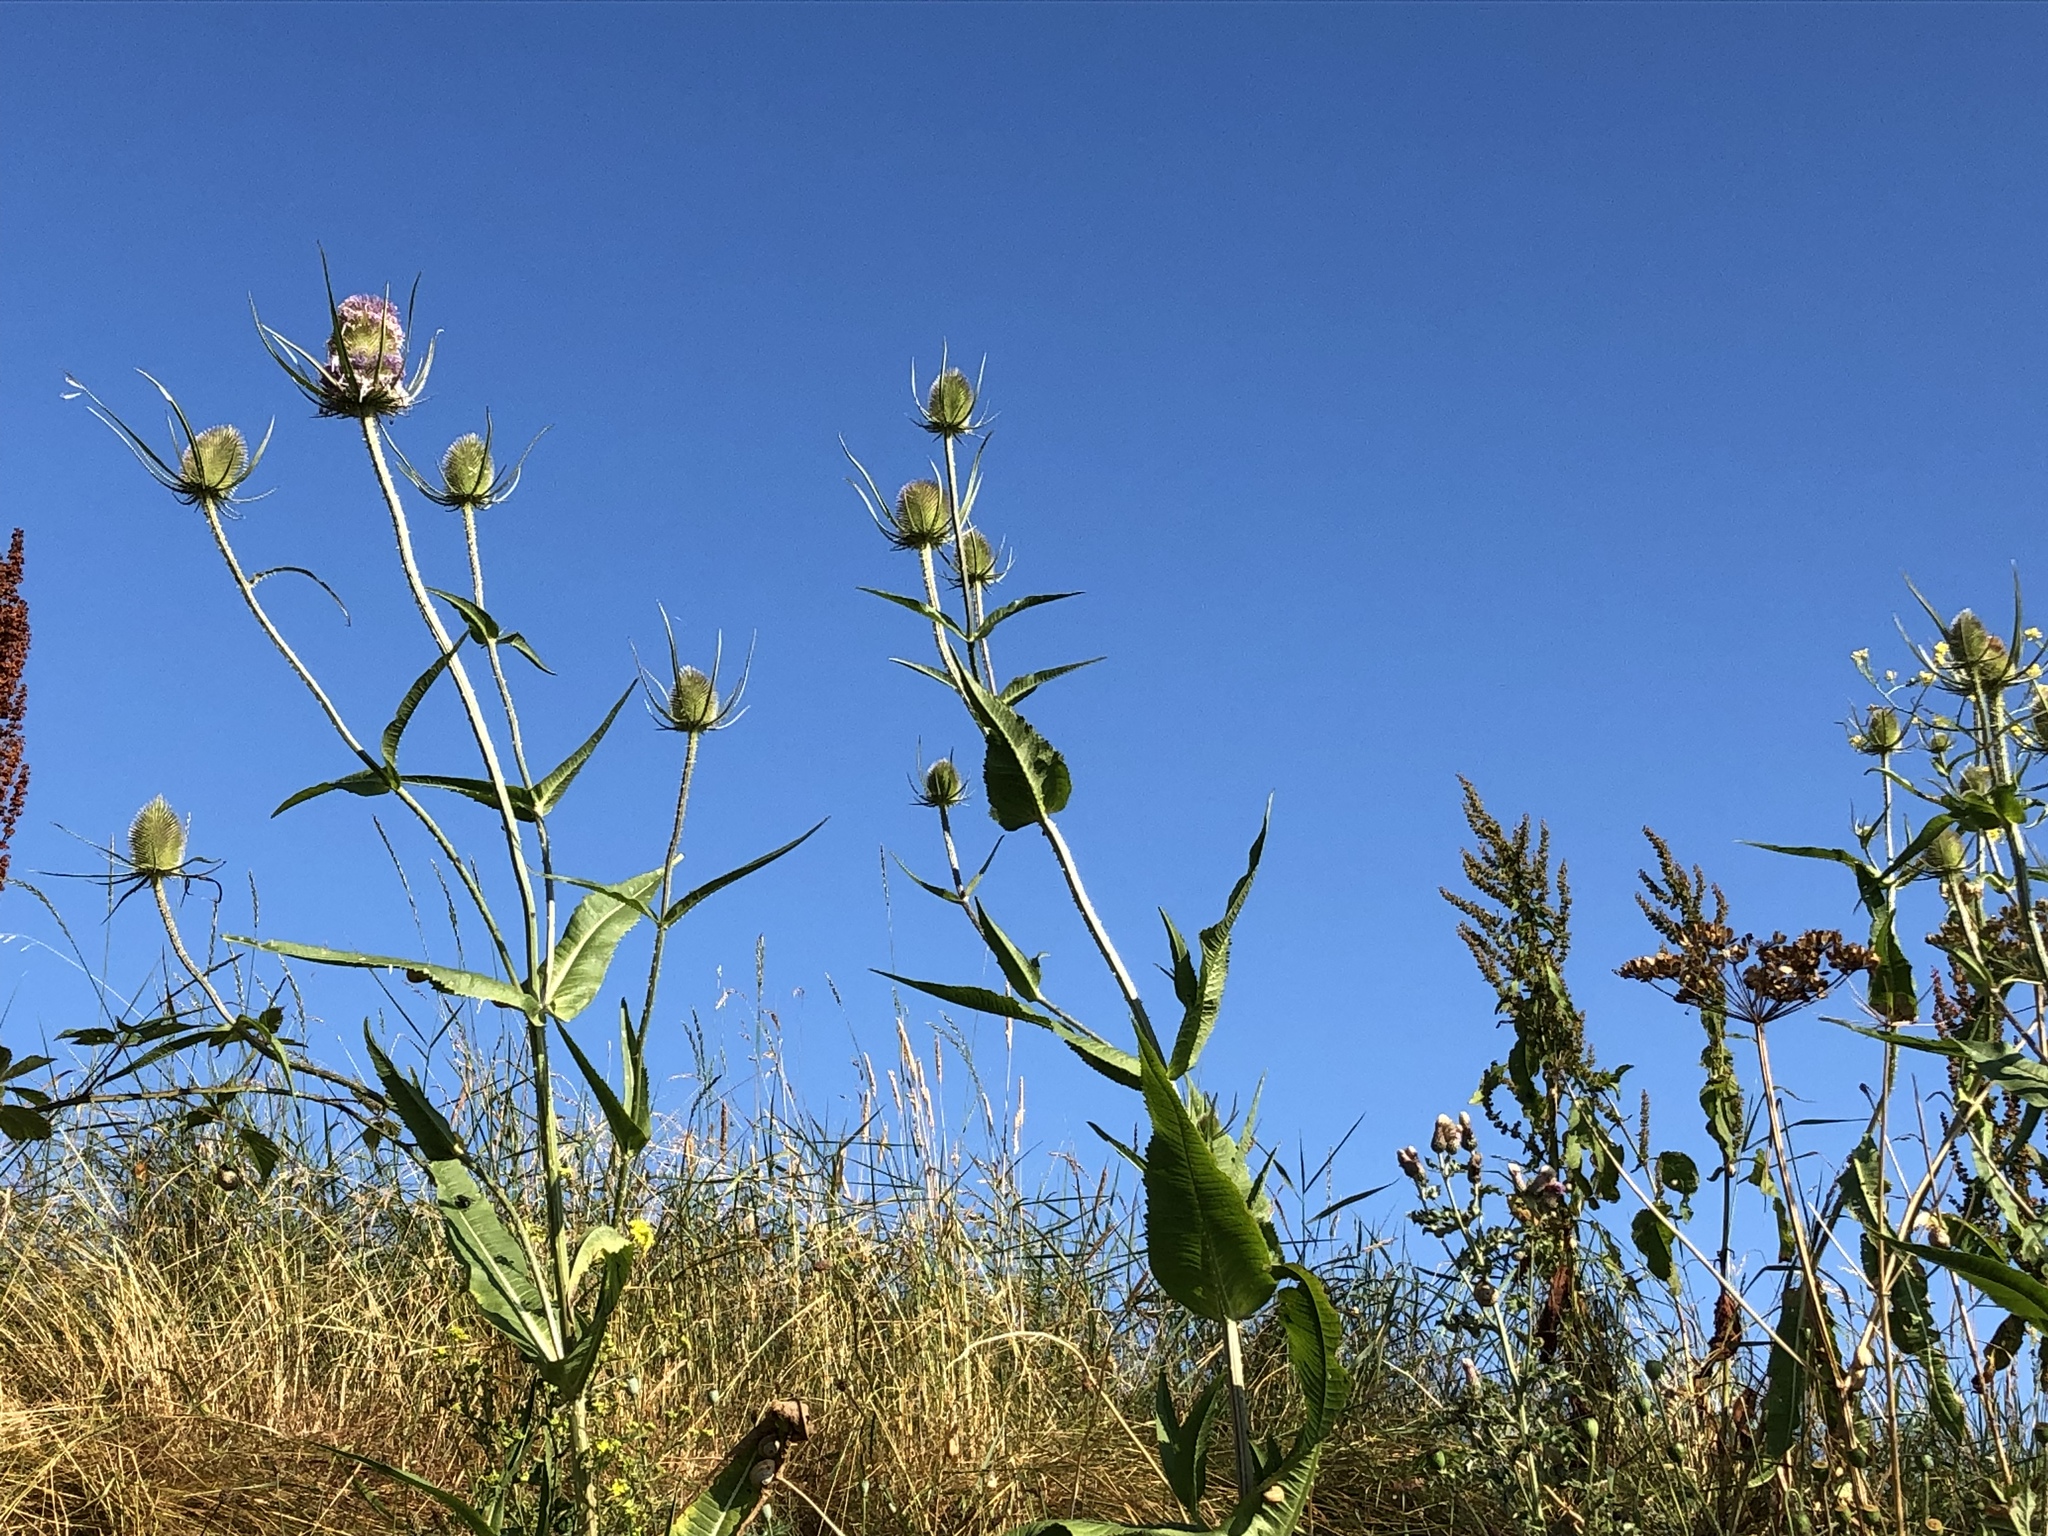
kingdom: Plantae
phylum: Tracheophyta
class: Magnoliopsida
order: Dipsacales
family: Caprifoliaceae
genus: Dipsacus
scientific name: Dipsacus fullonum
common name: Teasel
